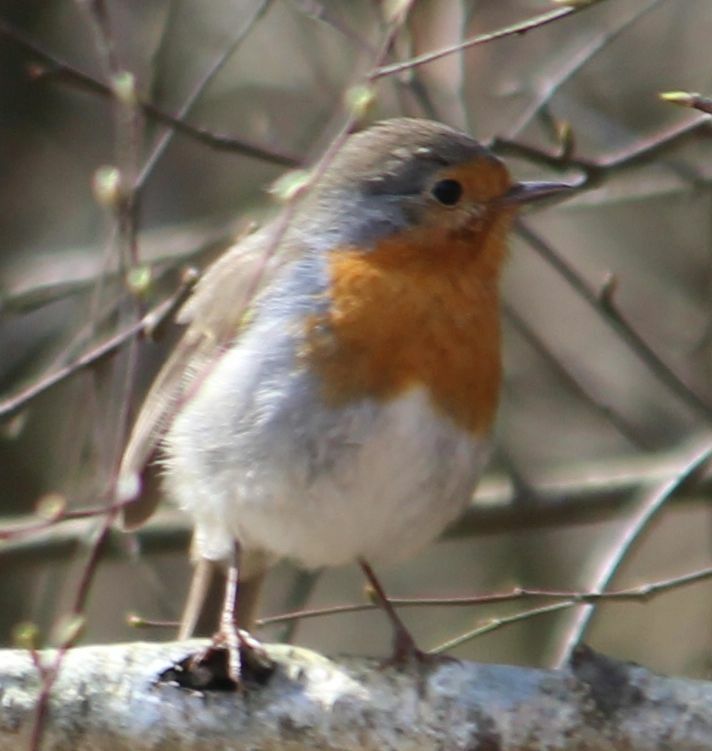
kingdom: Animalia
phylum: Chordata
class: Aves
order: Passeriformes
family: Muscicapidae
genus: Erithacus
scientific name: Erithacus rubecula
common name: European robin
